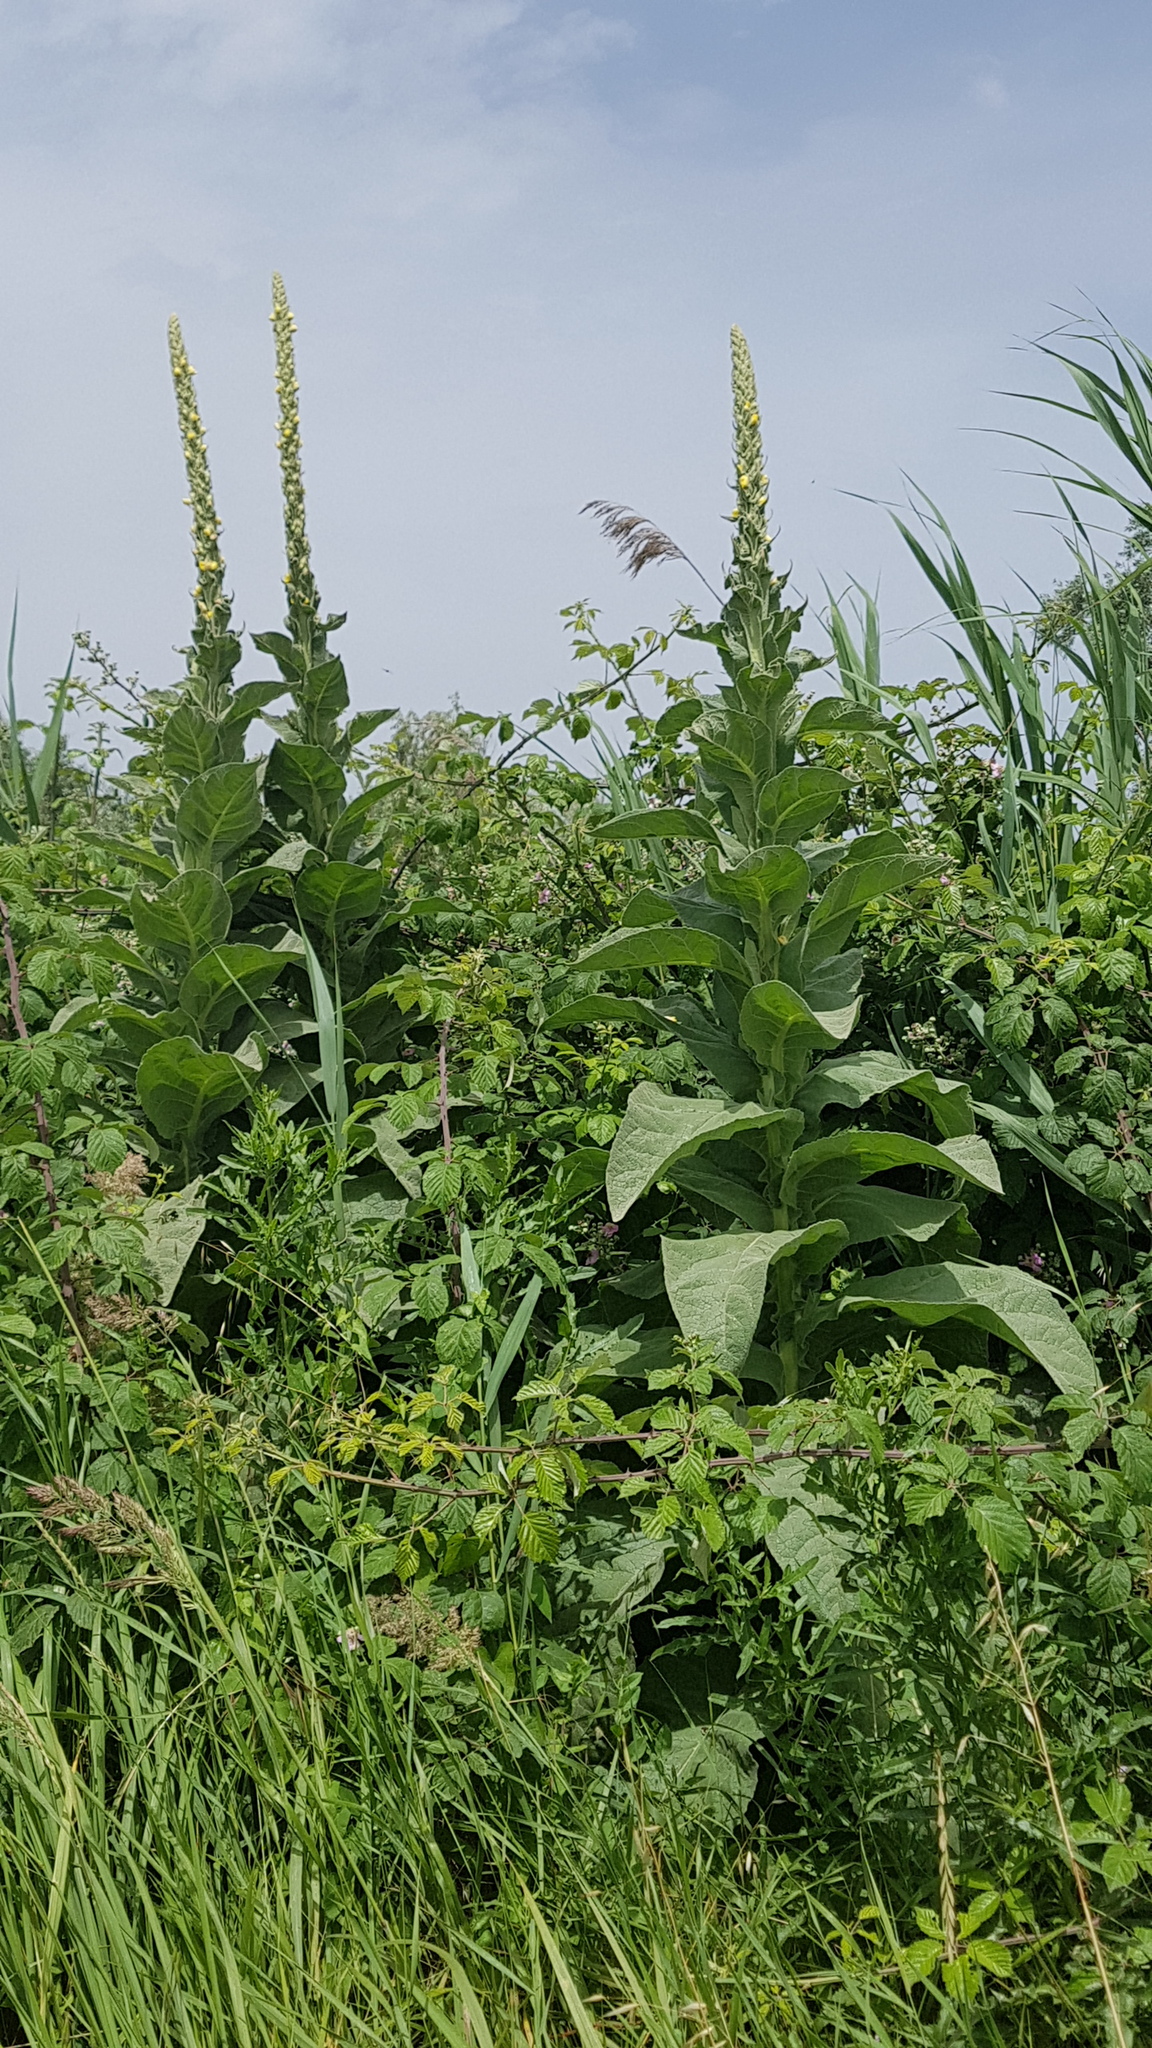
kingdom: Plantae
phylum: Tracheophyta
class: Magnoliopsida
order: Lamiales
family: Scrophulariaceae
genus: Verbascum
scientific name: Verbascum thapsus
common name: Common mullein
